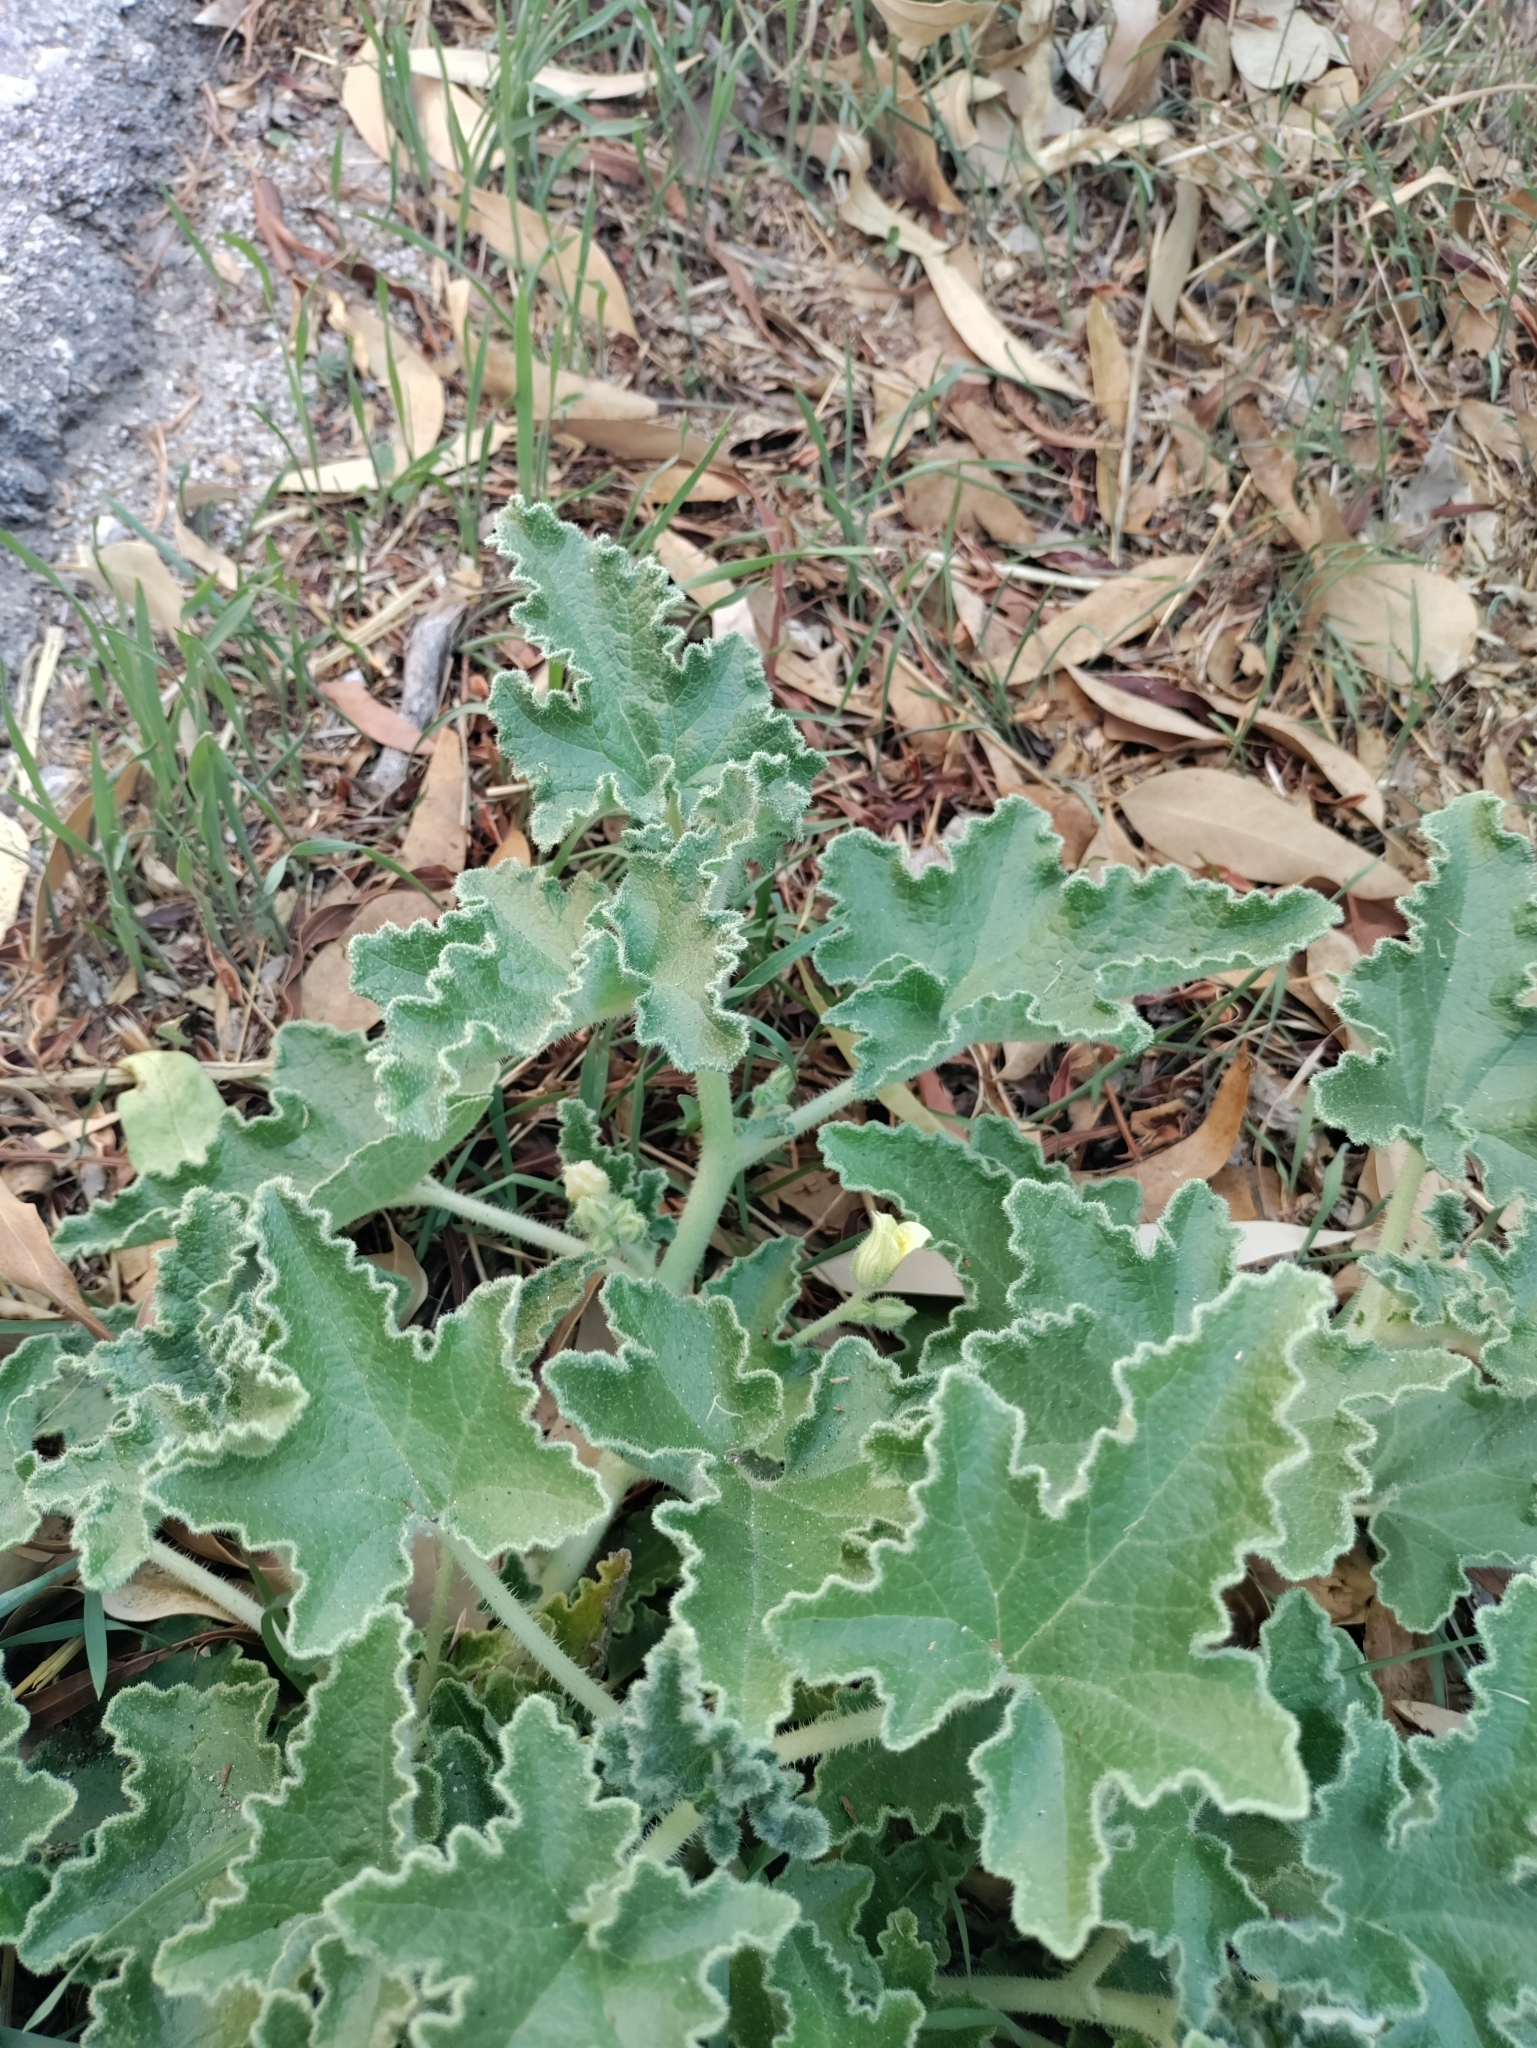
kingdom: Plantae
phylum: Tracheophyta
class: Magnoliopsida
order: Cucurbitales
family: Cucurbitaceae
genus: Ecballium
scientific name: Ecballium elaterium
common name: Squirting cucumber
